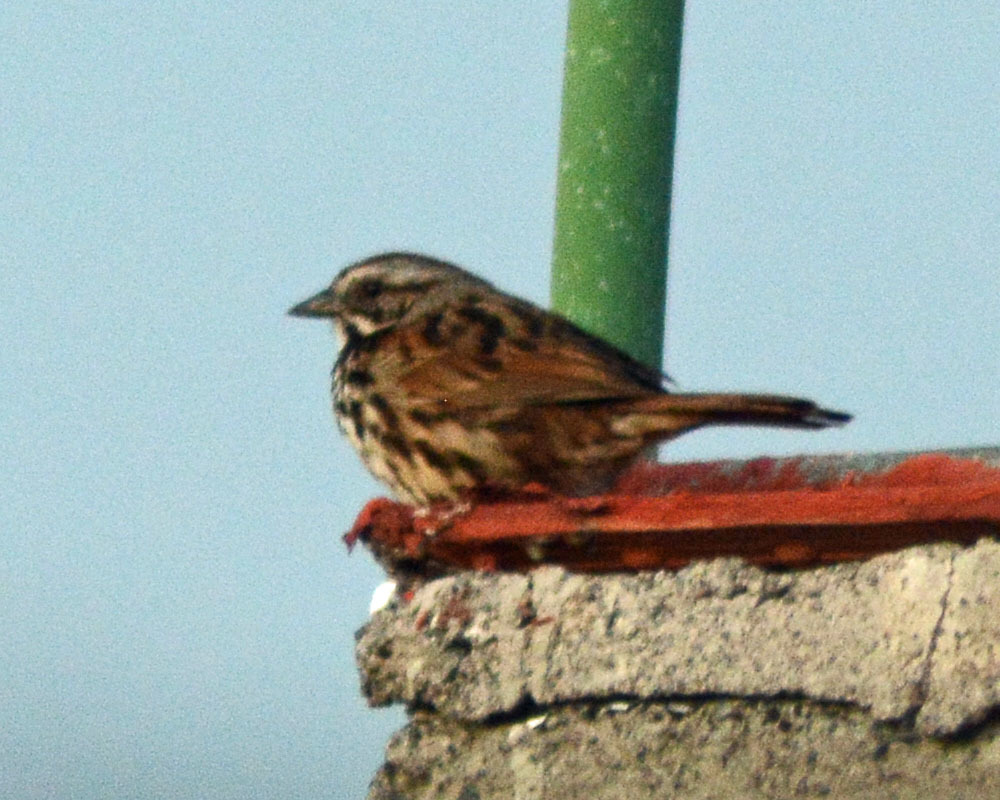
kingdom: Animalia
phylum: Chordata
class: Aves
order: Passeriformes
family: Passerellidae
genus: Melospiza
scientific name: Melospiza melodia
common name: Song sparrow
